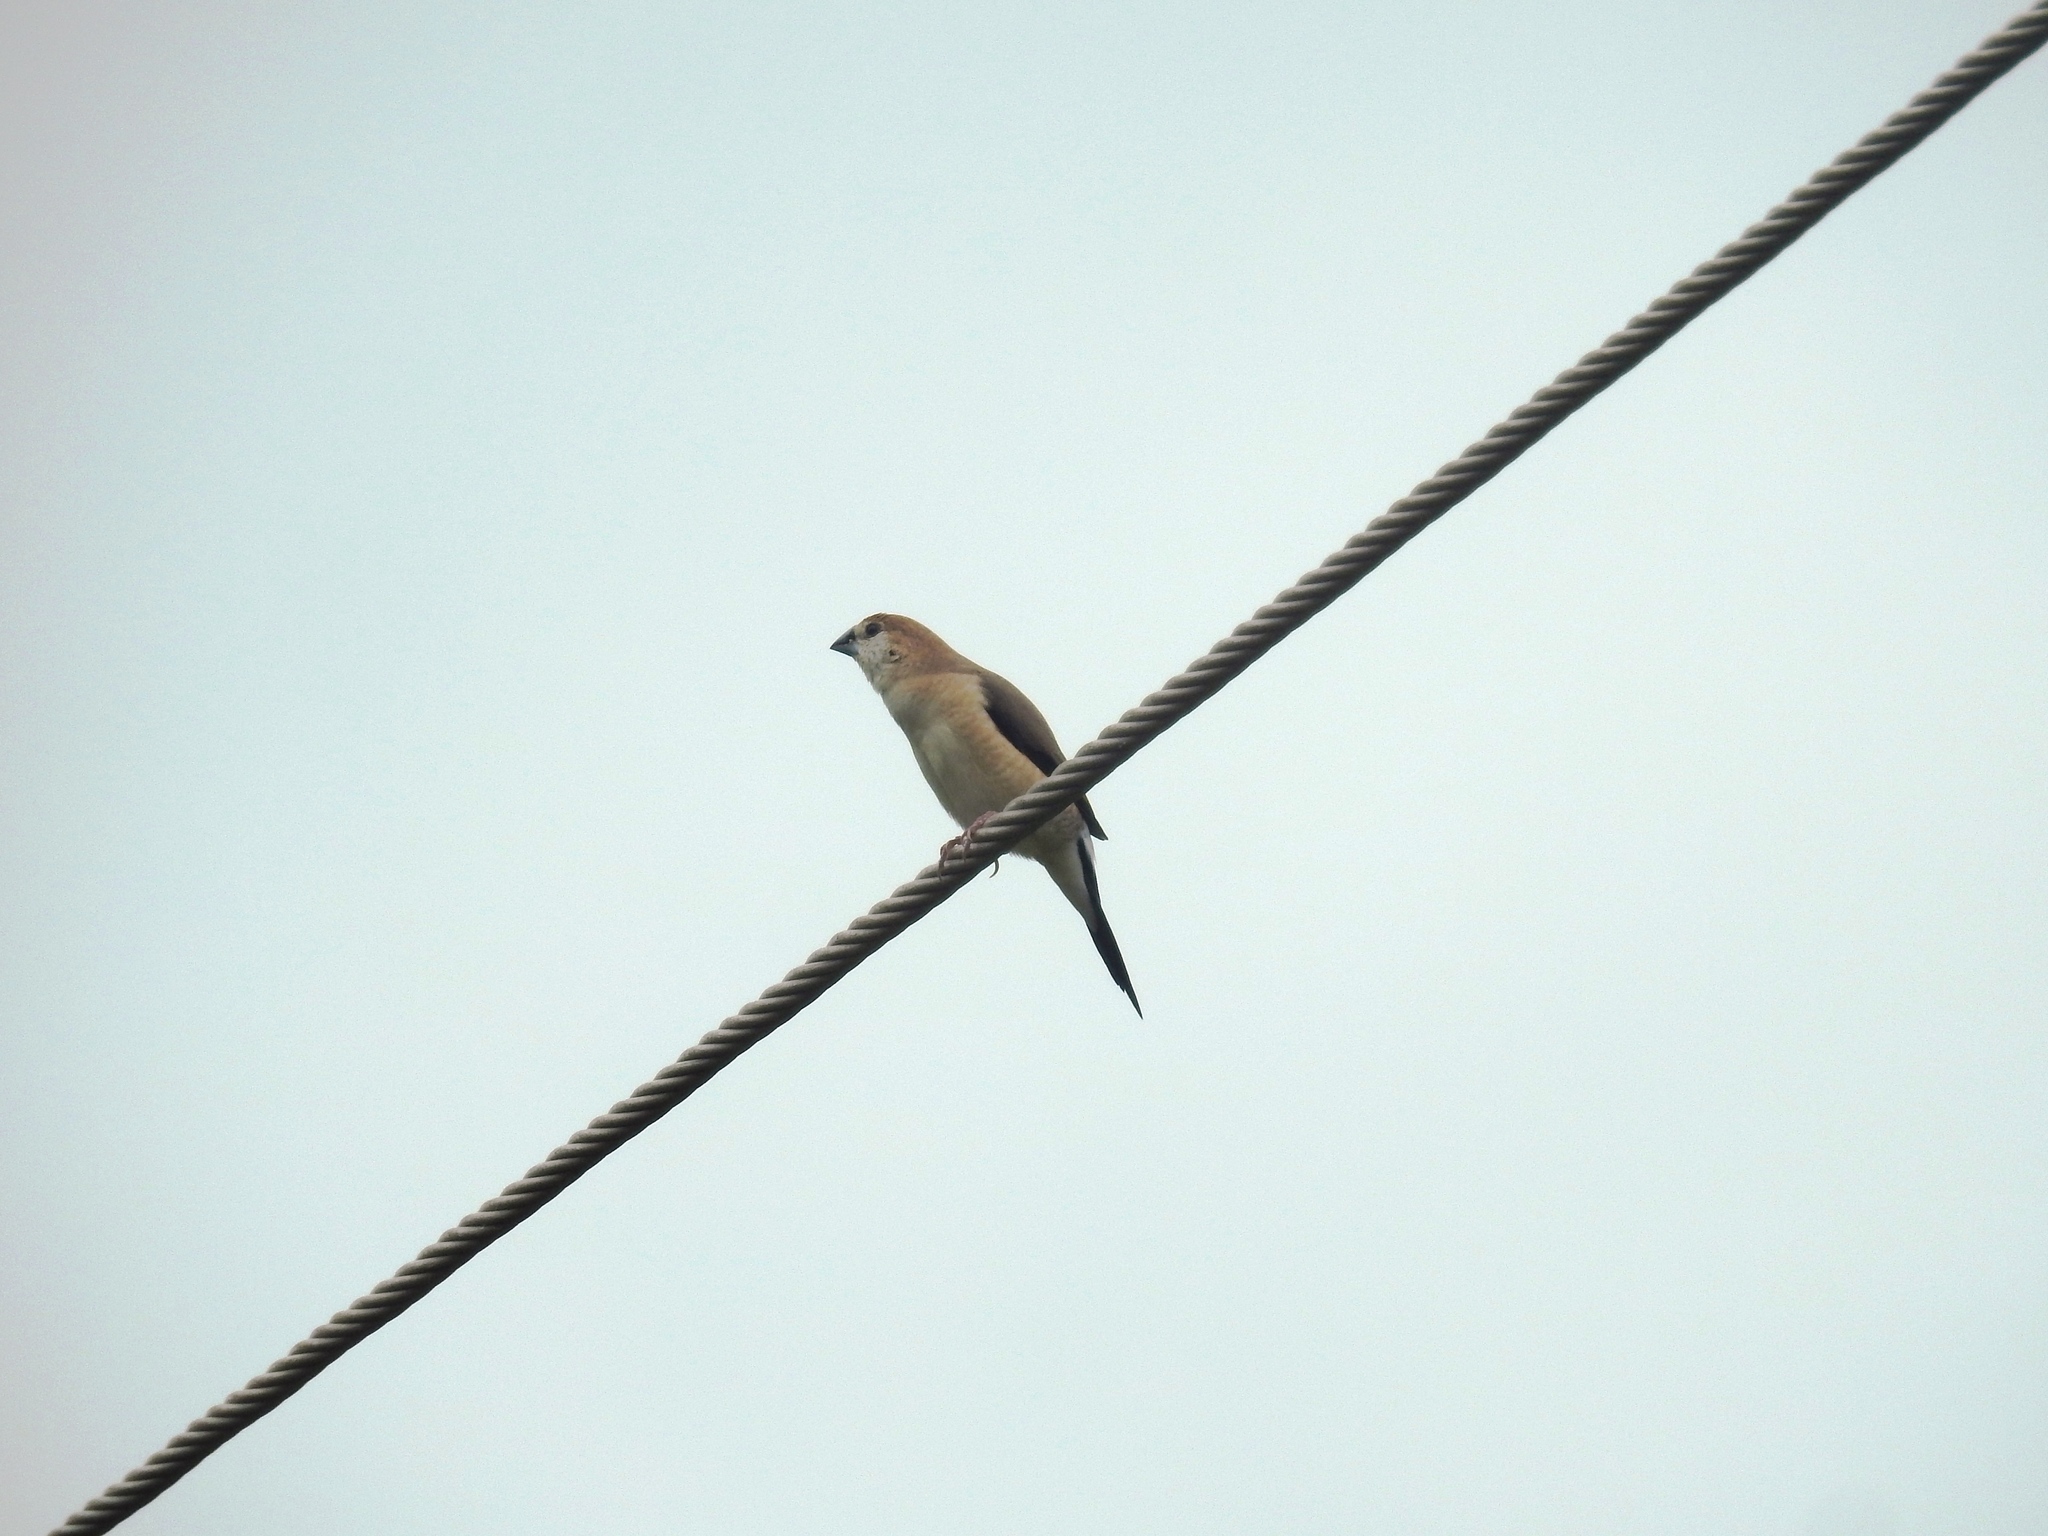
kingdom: Animalia
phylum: Chordata
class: Aves
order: Passeriformes
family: Estrildidae
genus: Euodice
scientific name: Euodice malabarica
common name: Indian silverbill
